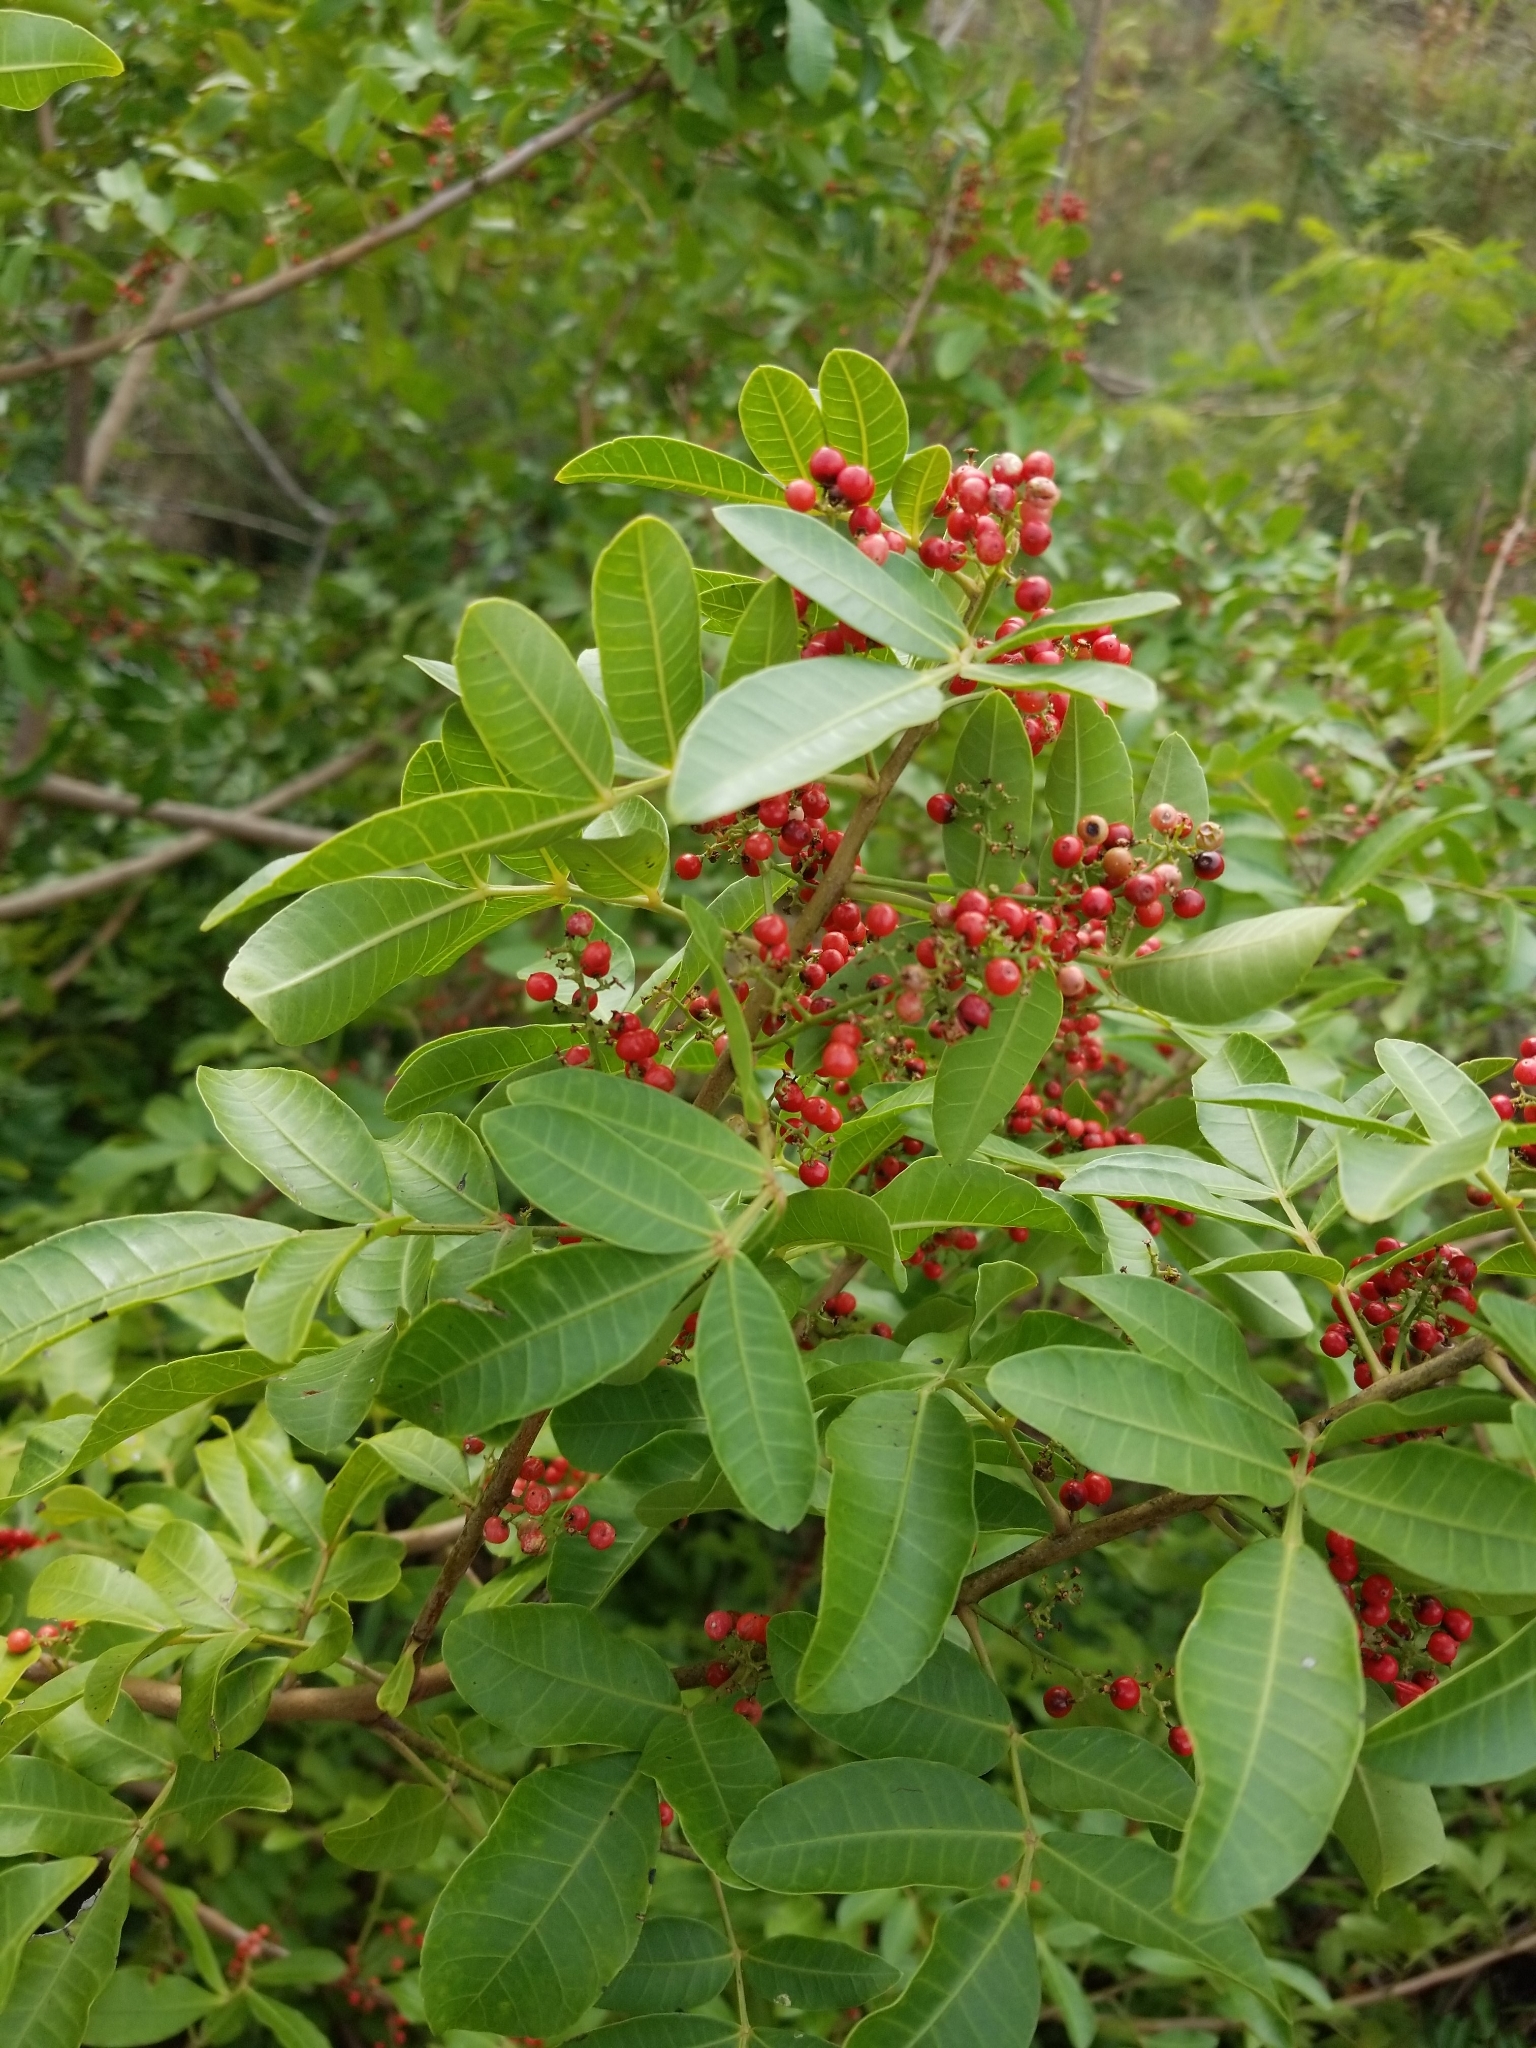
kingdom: Plantae
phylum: Tracheophyta
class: Magnoliopsida
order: Sapindales
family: Anacardiaceae
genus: Schinus
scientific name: Schinus terebinthifolia
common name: Brazilian peppertree
